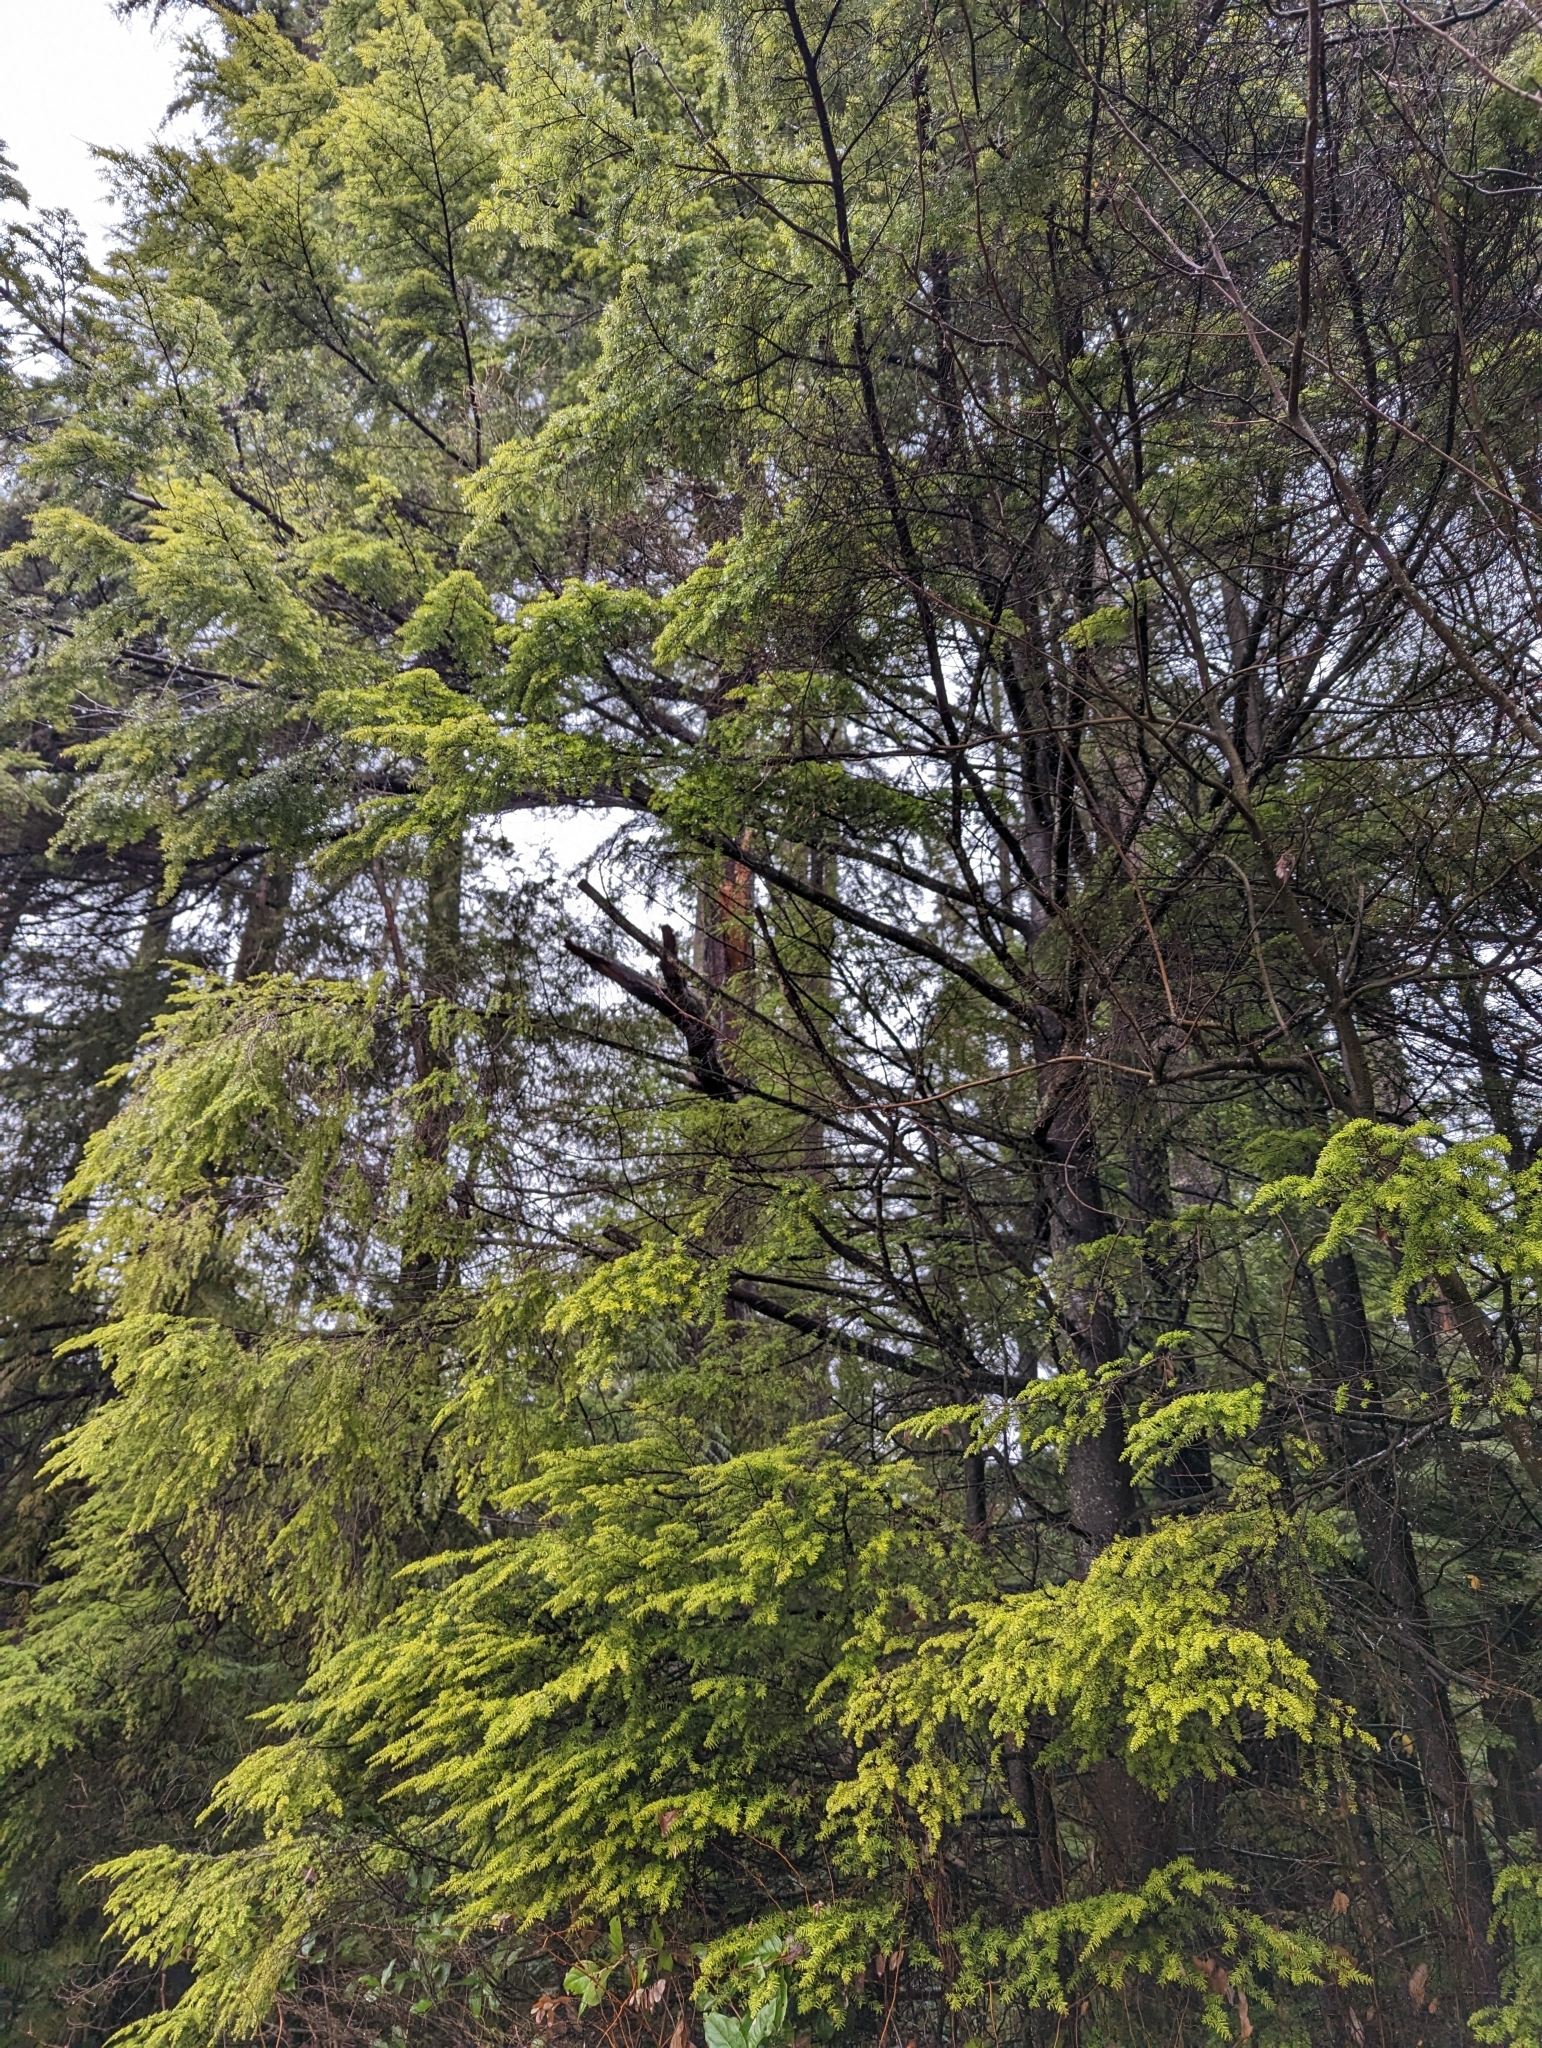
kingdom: Plantae
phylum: Tracheophyta
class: Pinopsida
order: Pinales
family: Pinaceae
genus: Tsuga
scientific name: Tsuga heterophylla
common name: Western hemlock
